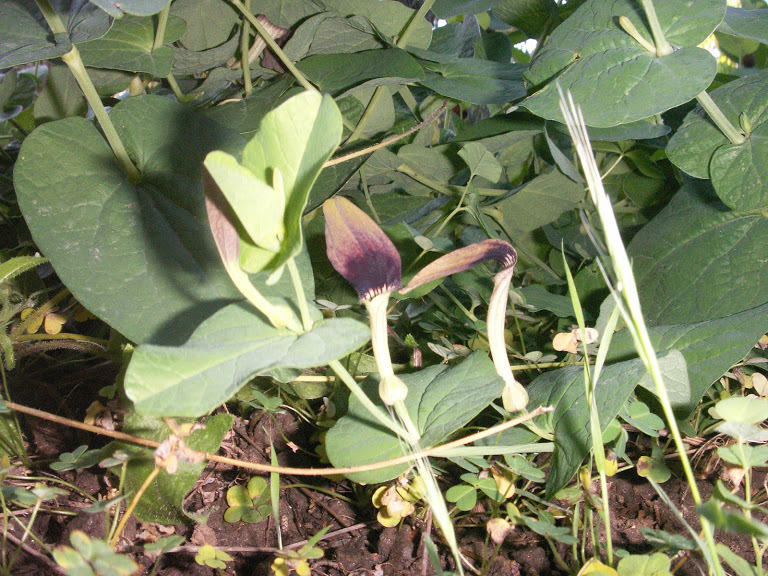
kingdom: Plantae
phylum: Tracheophyta
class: Magnoliopsida
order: Piperales
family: Aristolochiaceae
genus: Aristolochia
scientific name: Aristolochia rotunda
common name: Smearwort
